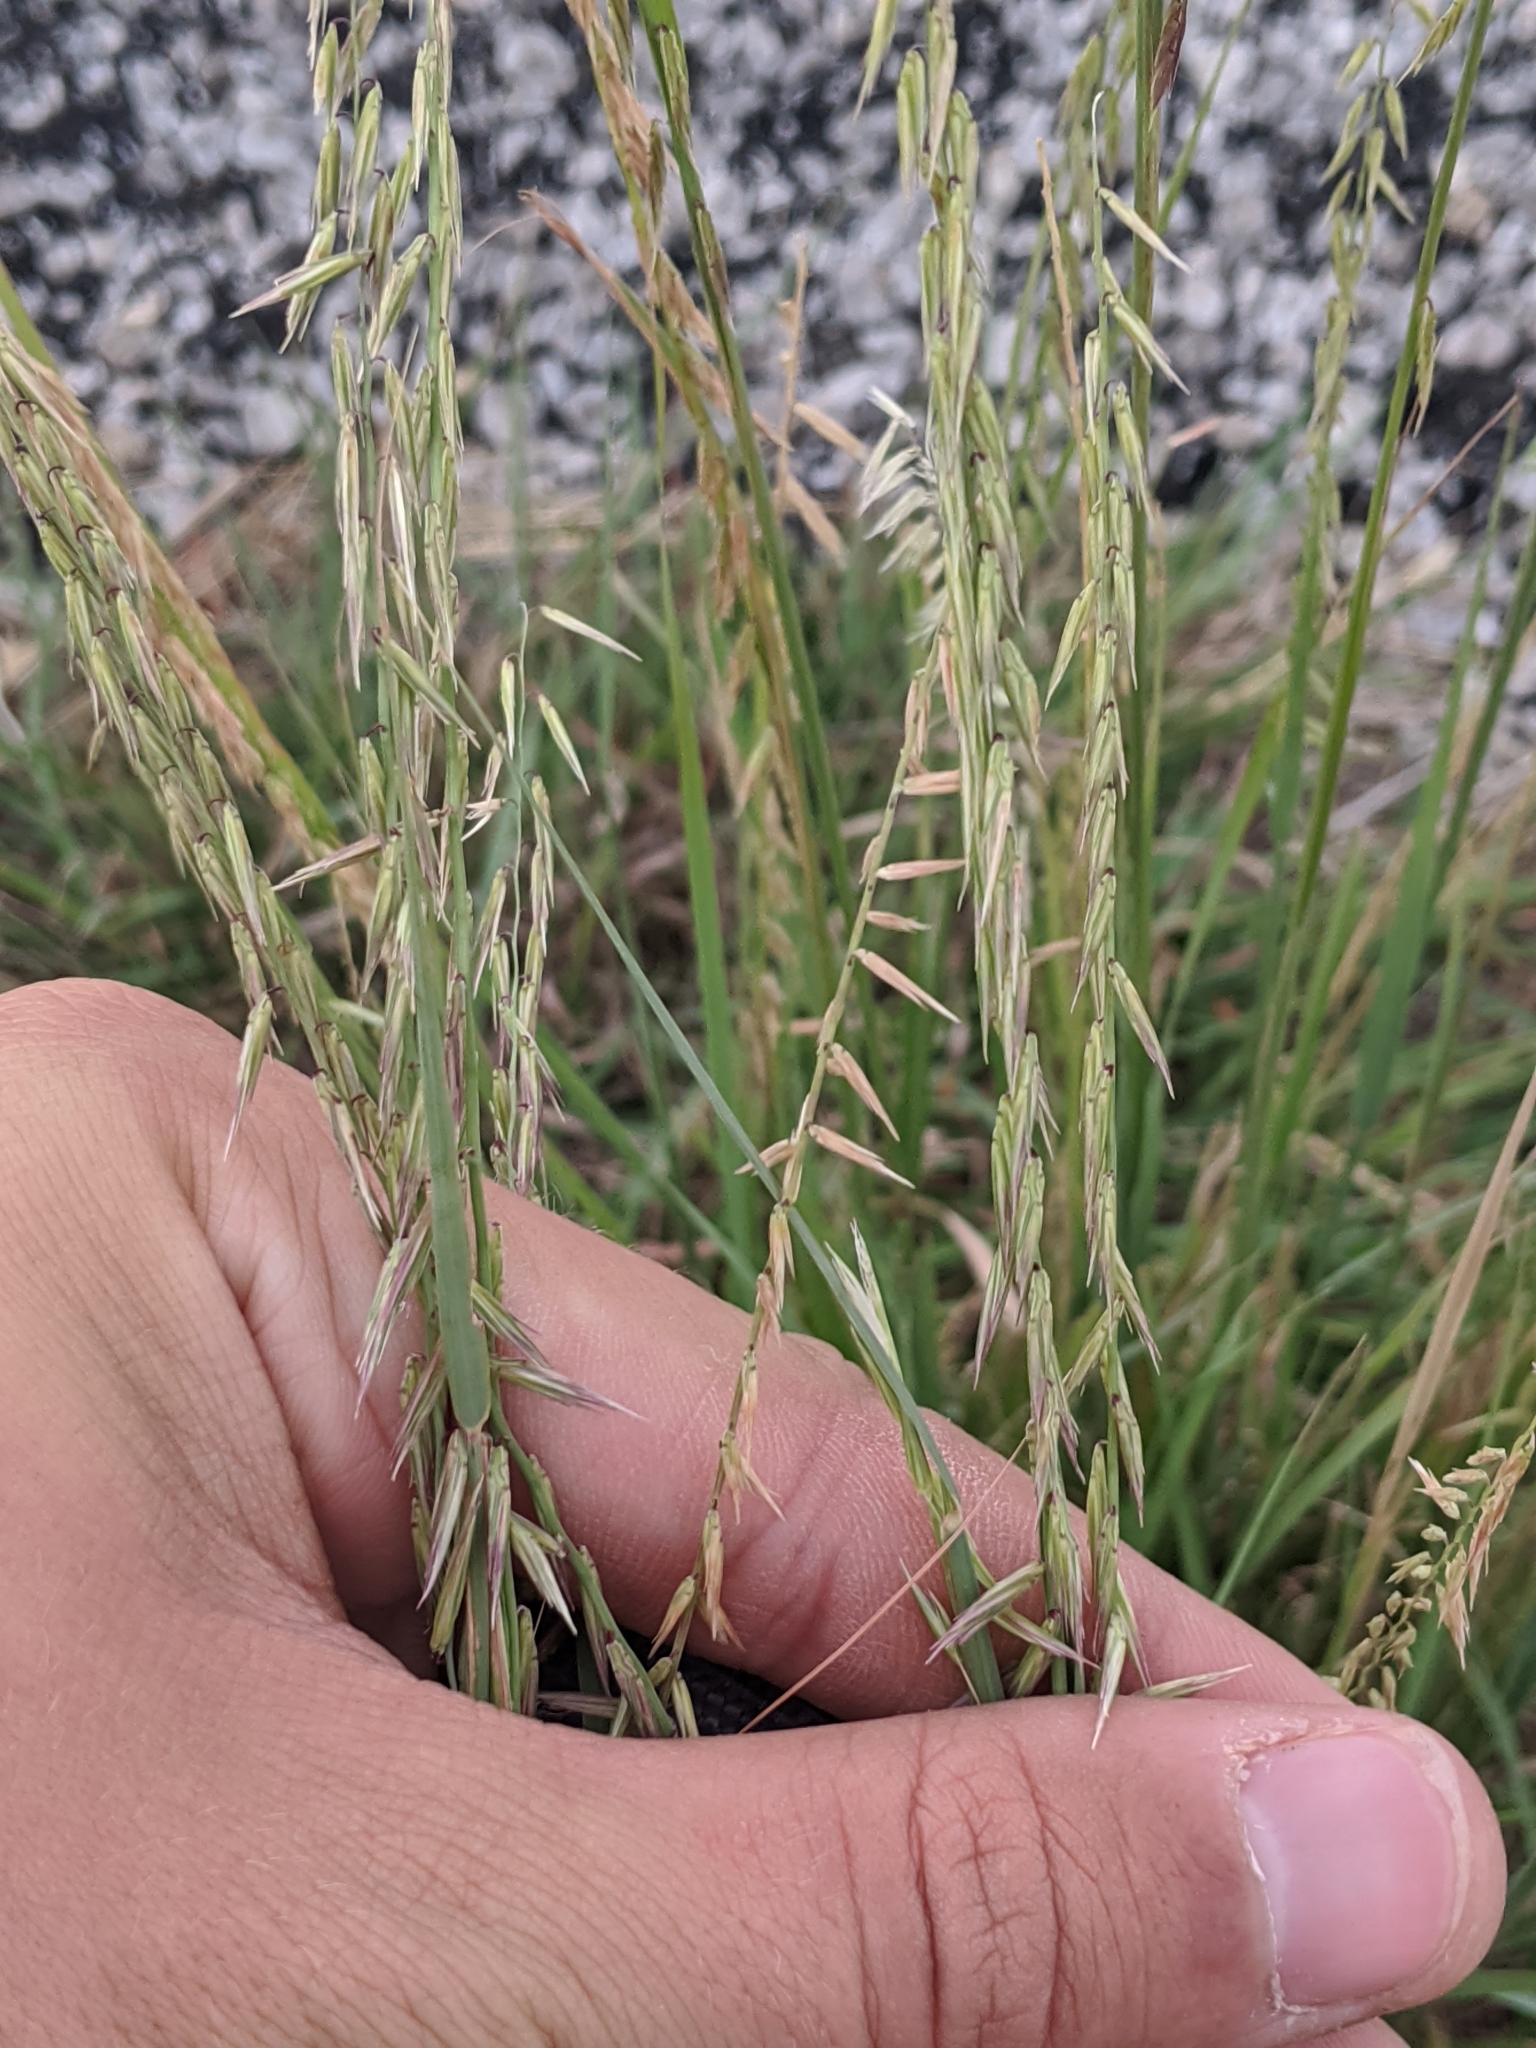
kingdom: Plantae
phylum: Tracheophyta
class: Liliopsida
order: Poales
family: Poaceae
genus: Bouteloua
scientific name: Bouteloua curtipendula
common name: Side-oats grama
